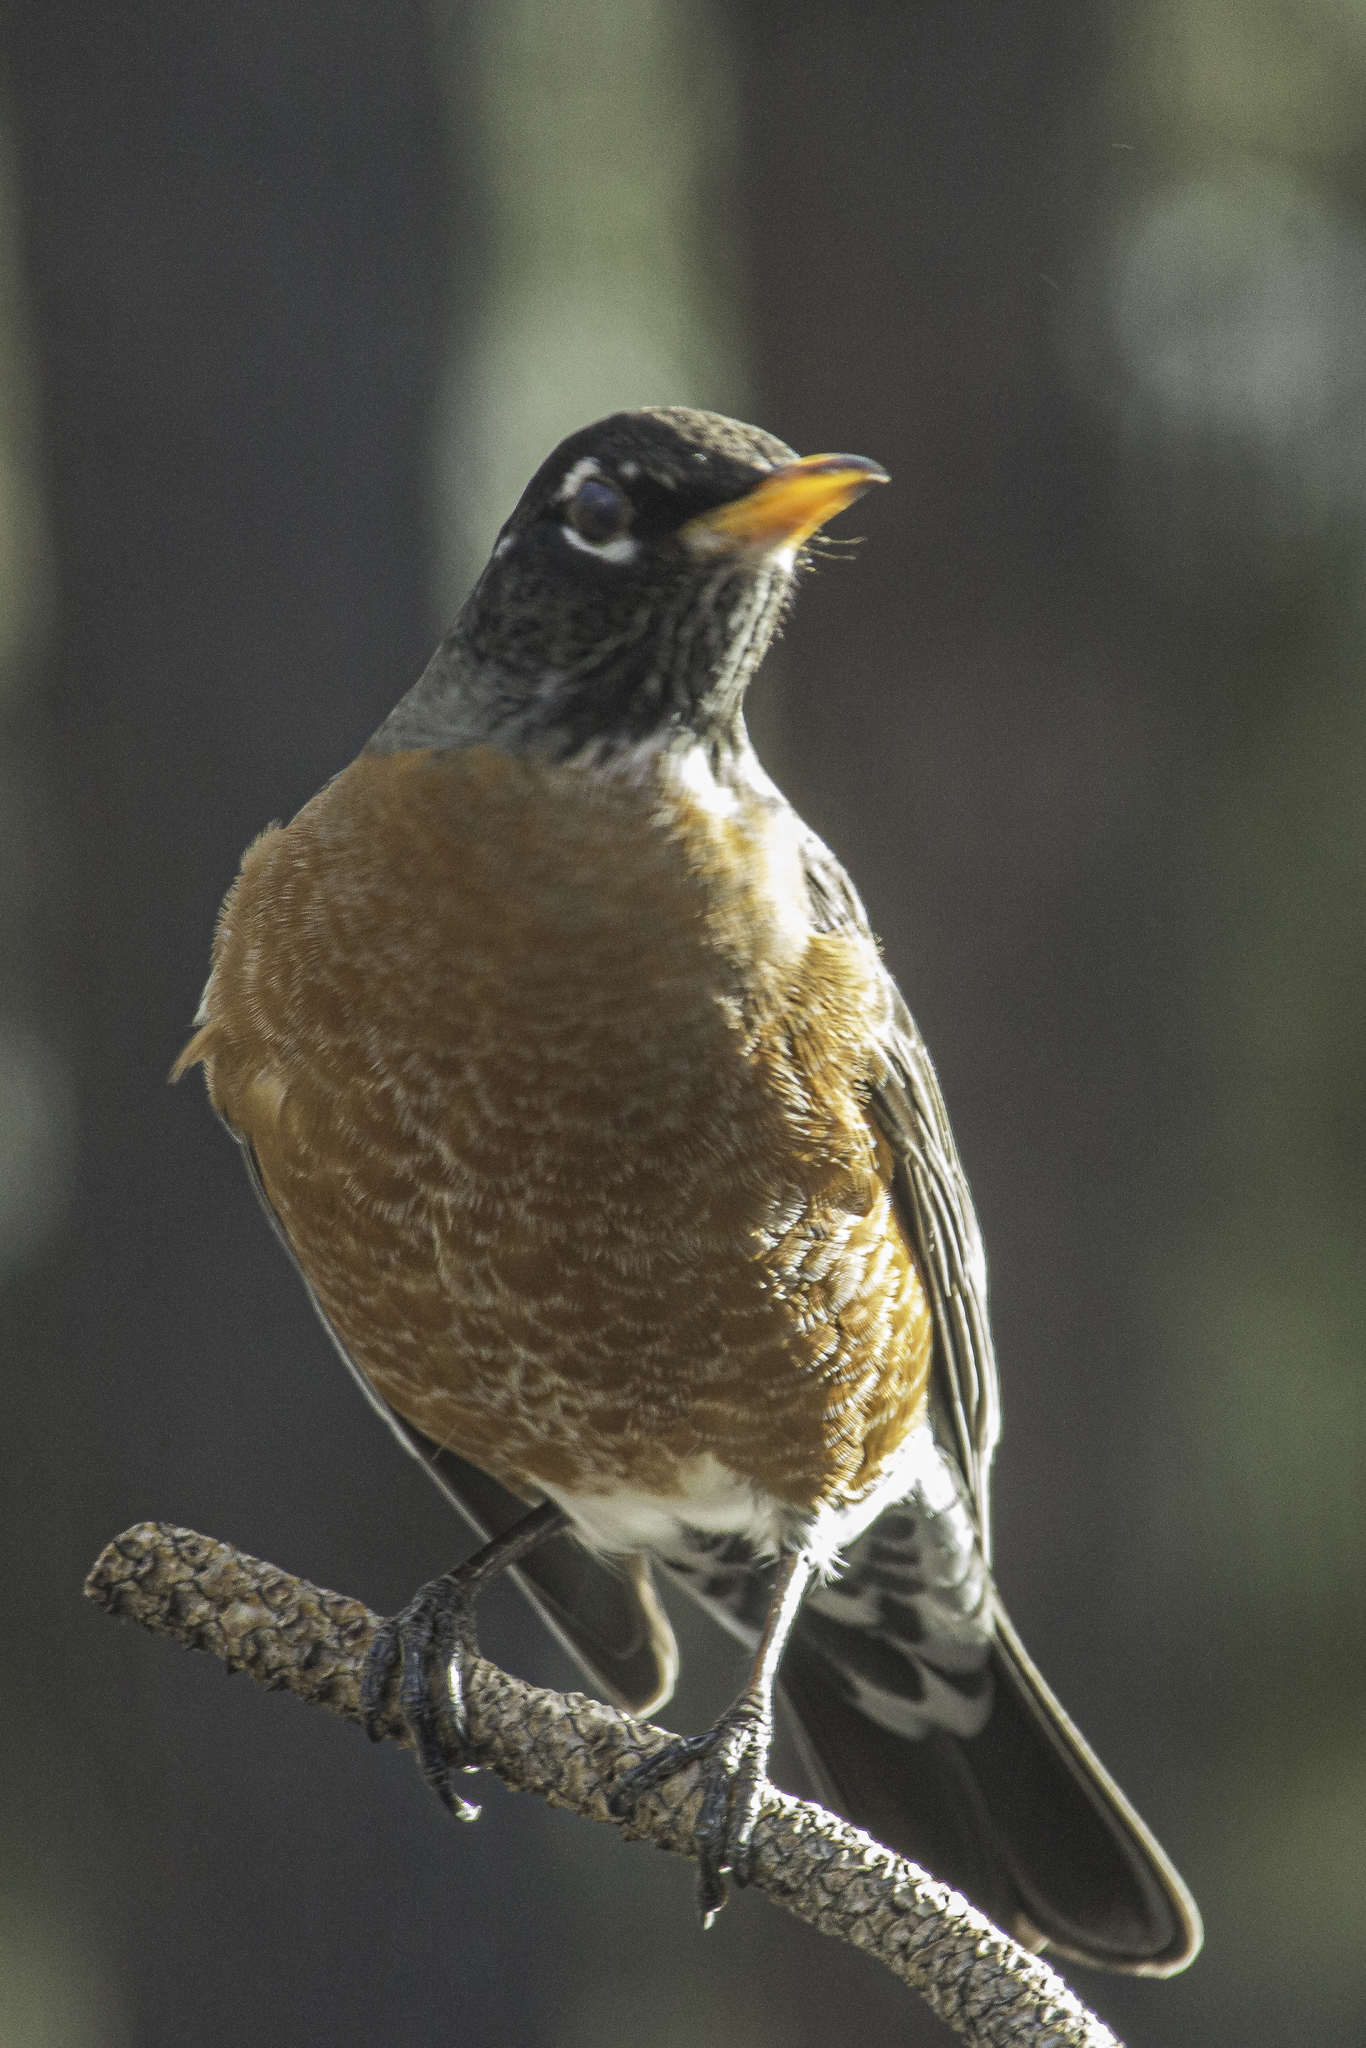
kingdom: Animalia
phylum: Chordata
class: Aves
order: Passeriformes
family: Turdidae
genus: Turdus
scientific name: Turdus migratorius
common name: American robin
